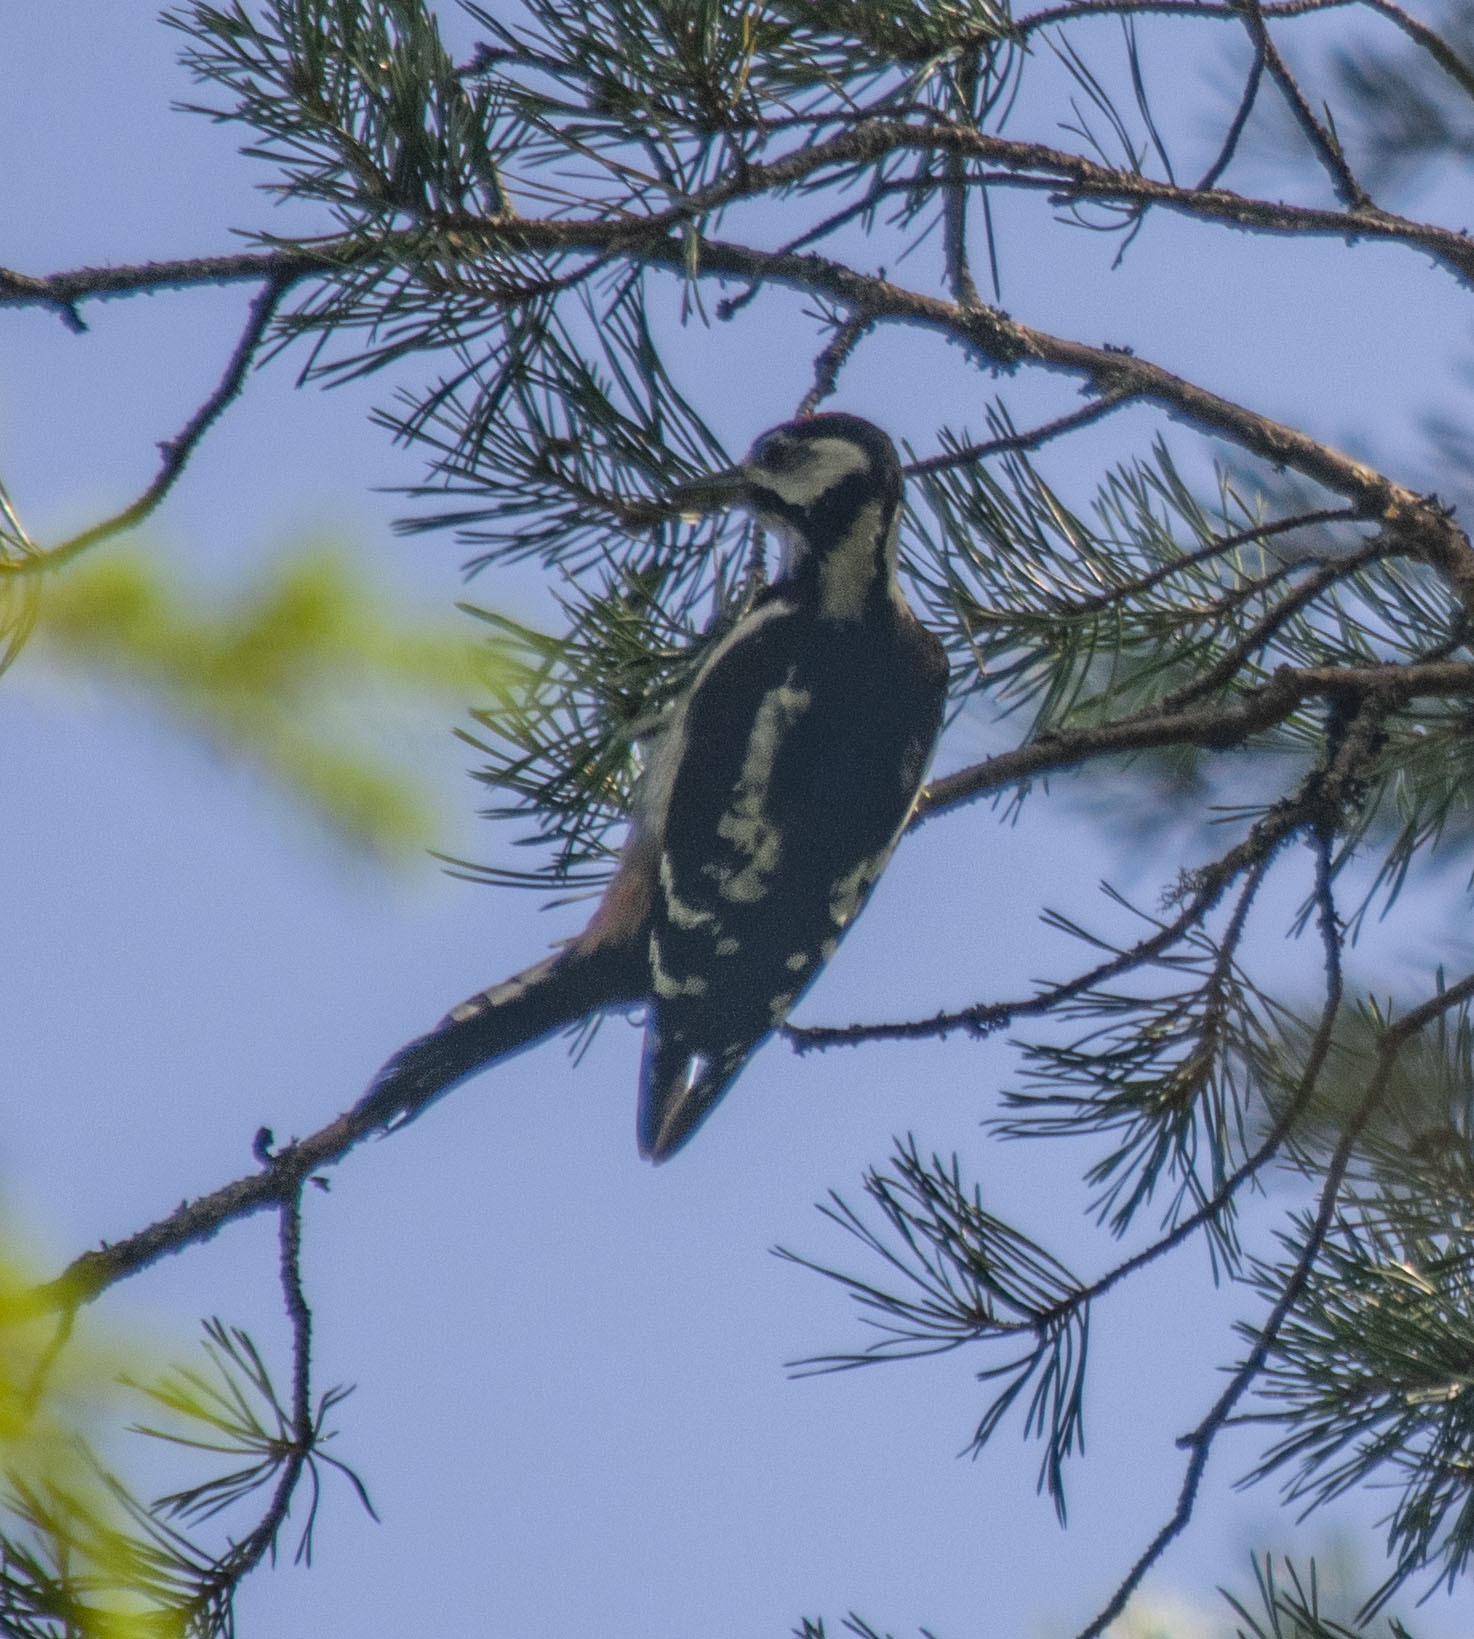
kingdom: Animalia
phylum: Chordata
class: Aves
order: Piciformes
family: Picidae
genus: Dendrocopos
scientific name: Dendrocopos major
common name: Great spotted woodpecker
